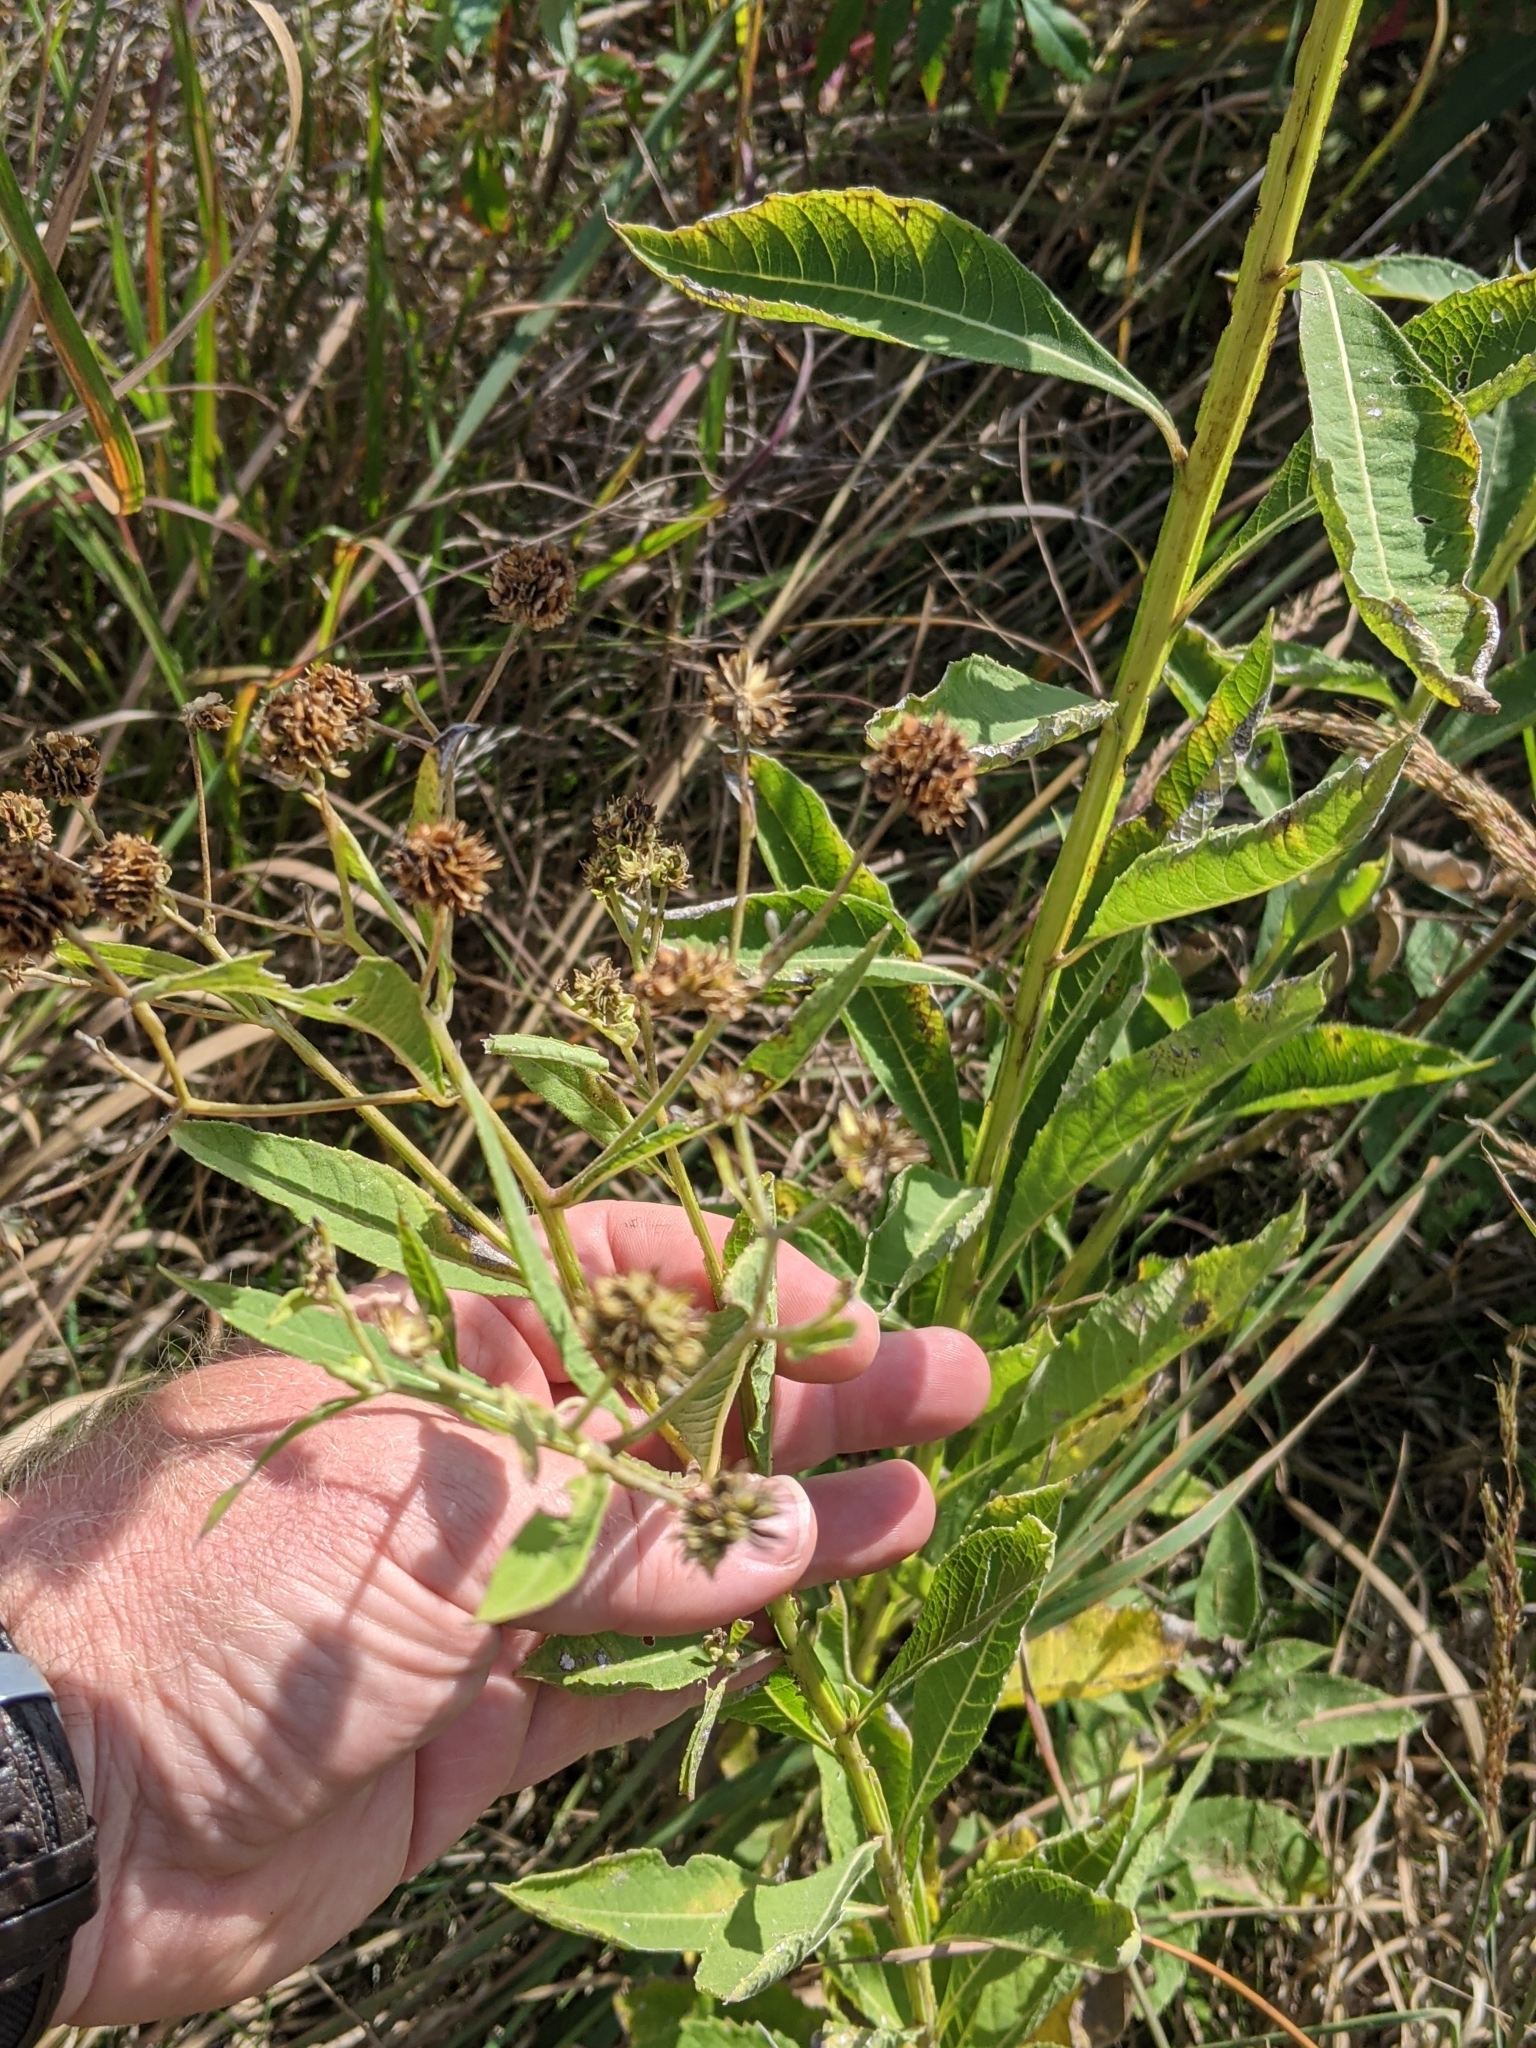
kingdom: Plantae
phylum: Tracheophyta
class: Magnoliopsida
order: Asterales
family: Asteraceae
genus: Verbesina
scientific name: Verbesina alternifolia
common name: Wingstem
